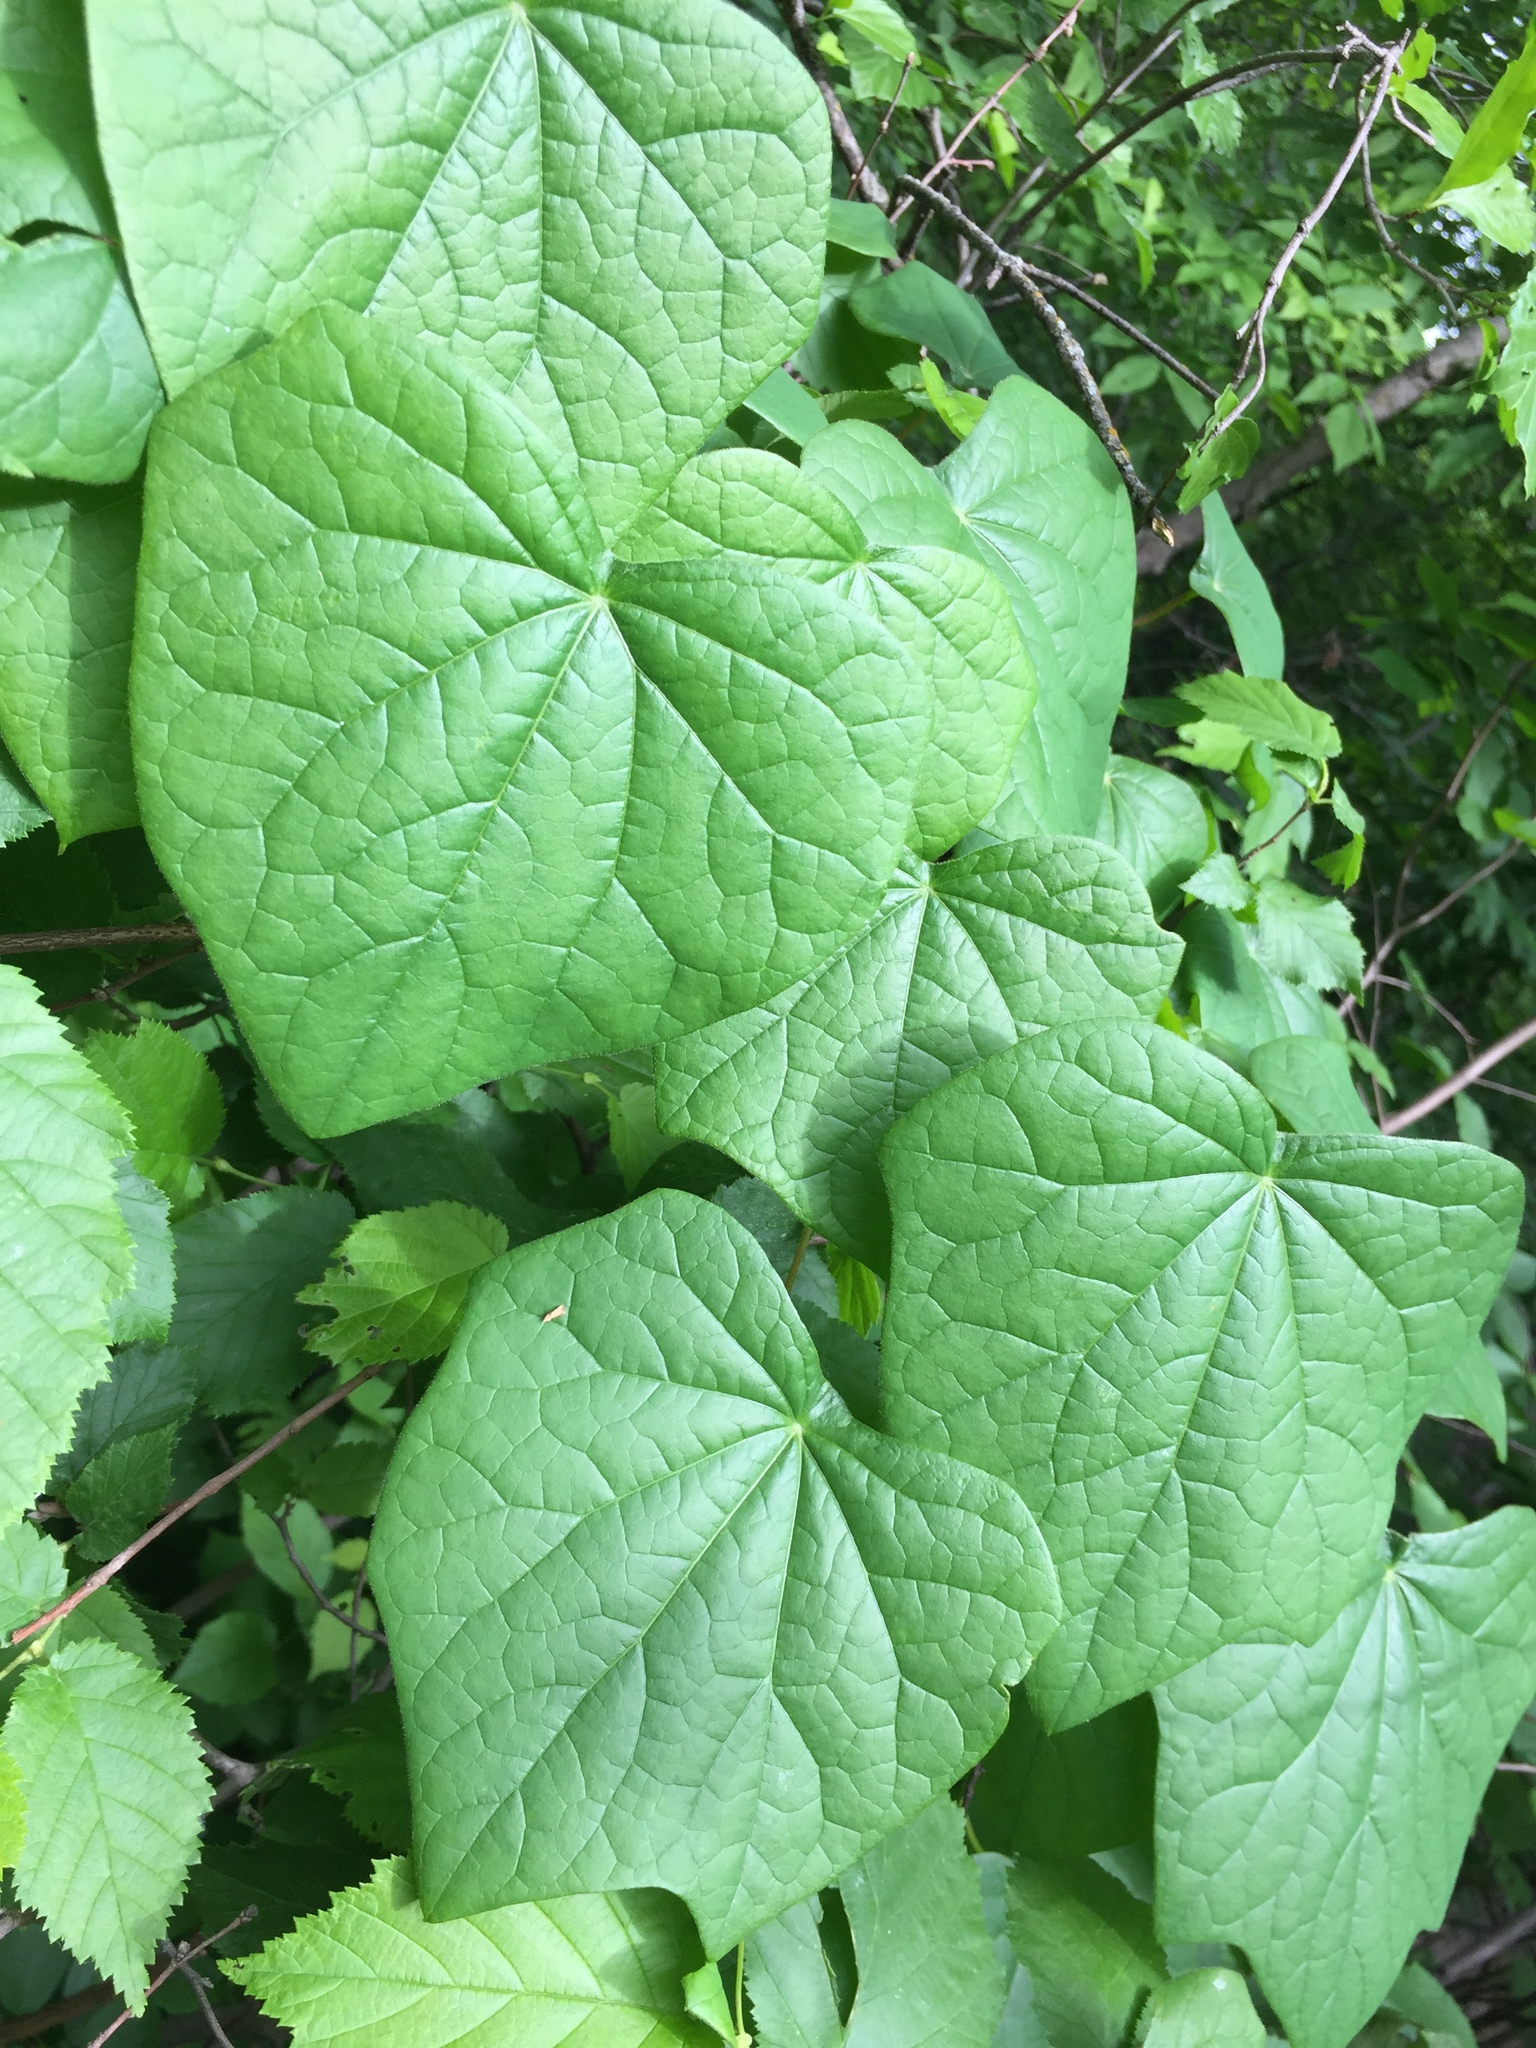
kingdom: Plantae
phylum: Tracheophyta
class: Magnoliopsida
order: Ranunculales
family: Menispermaceae
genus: Menispermum
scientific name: Menispermum canadense
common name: Moonseed
